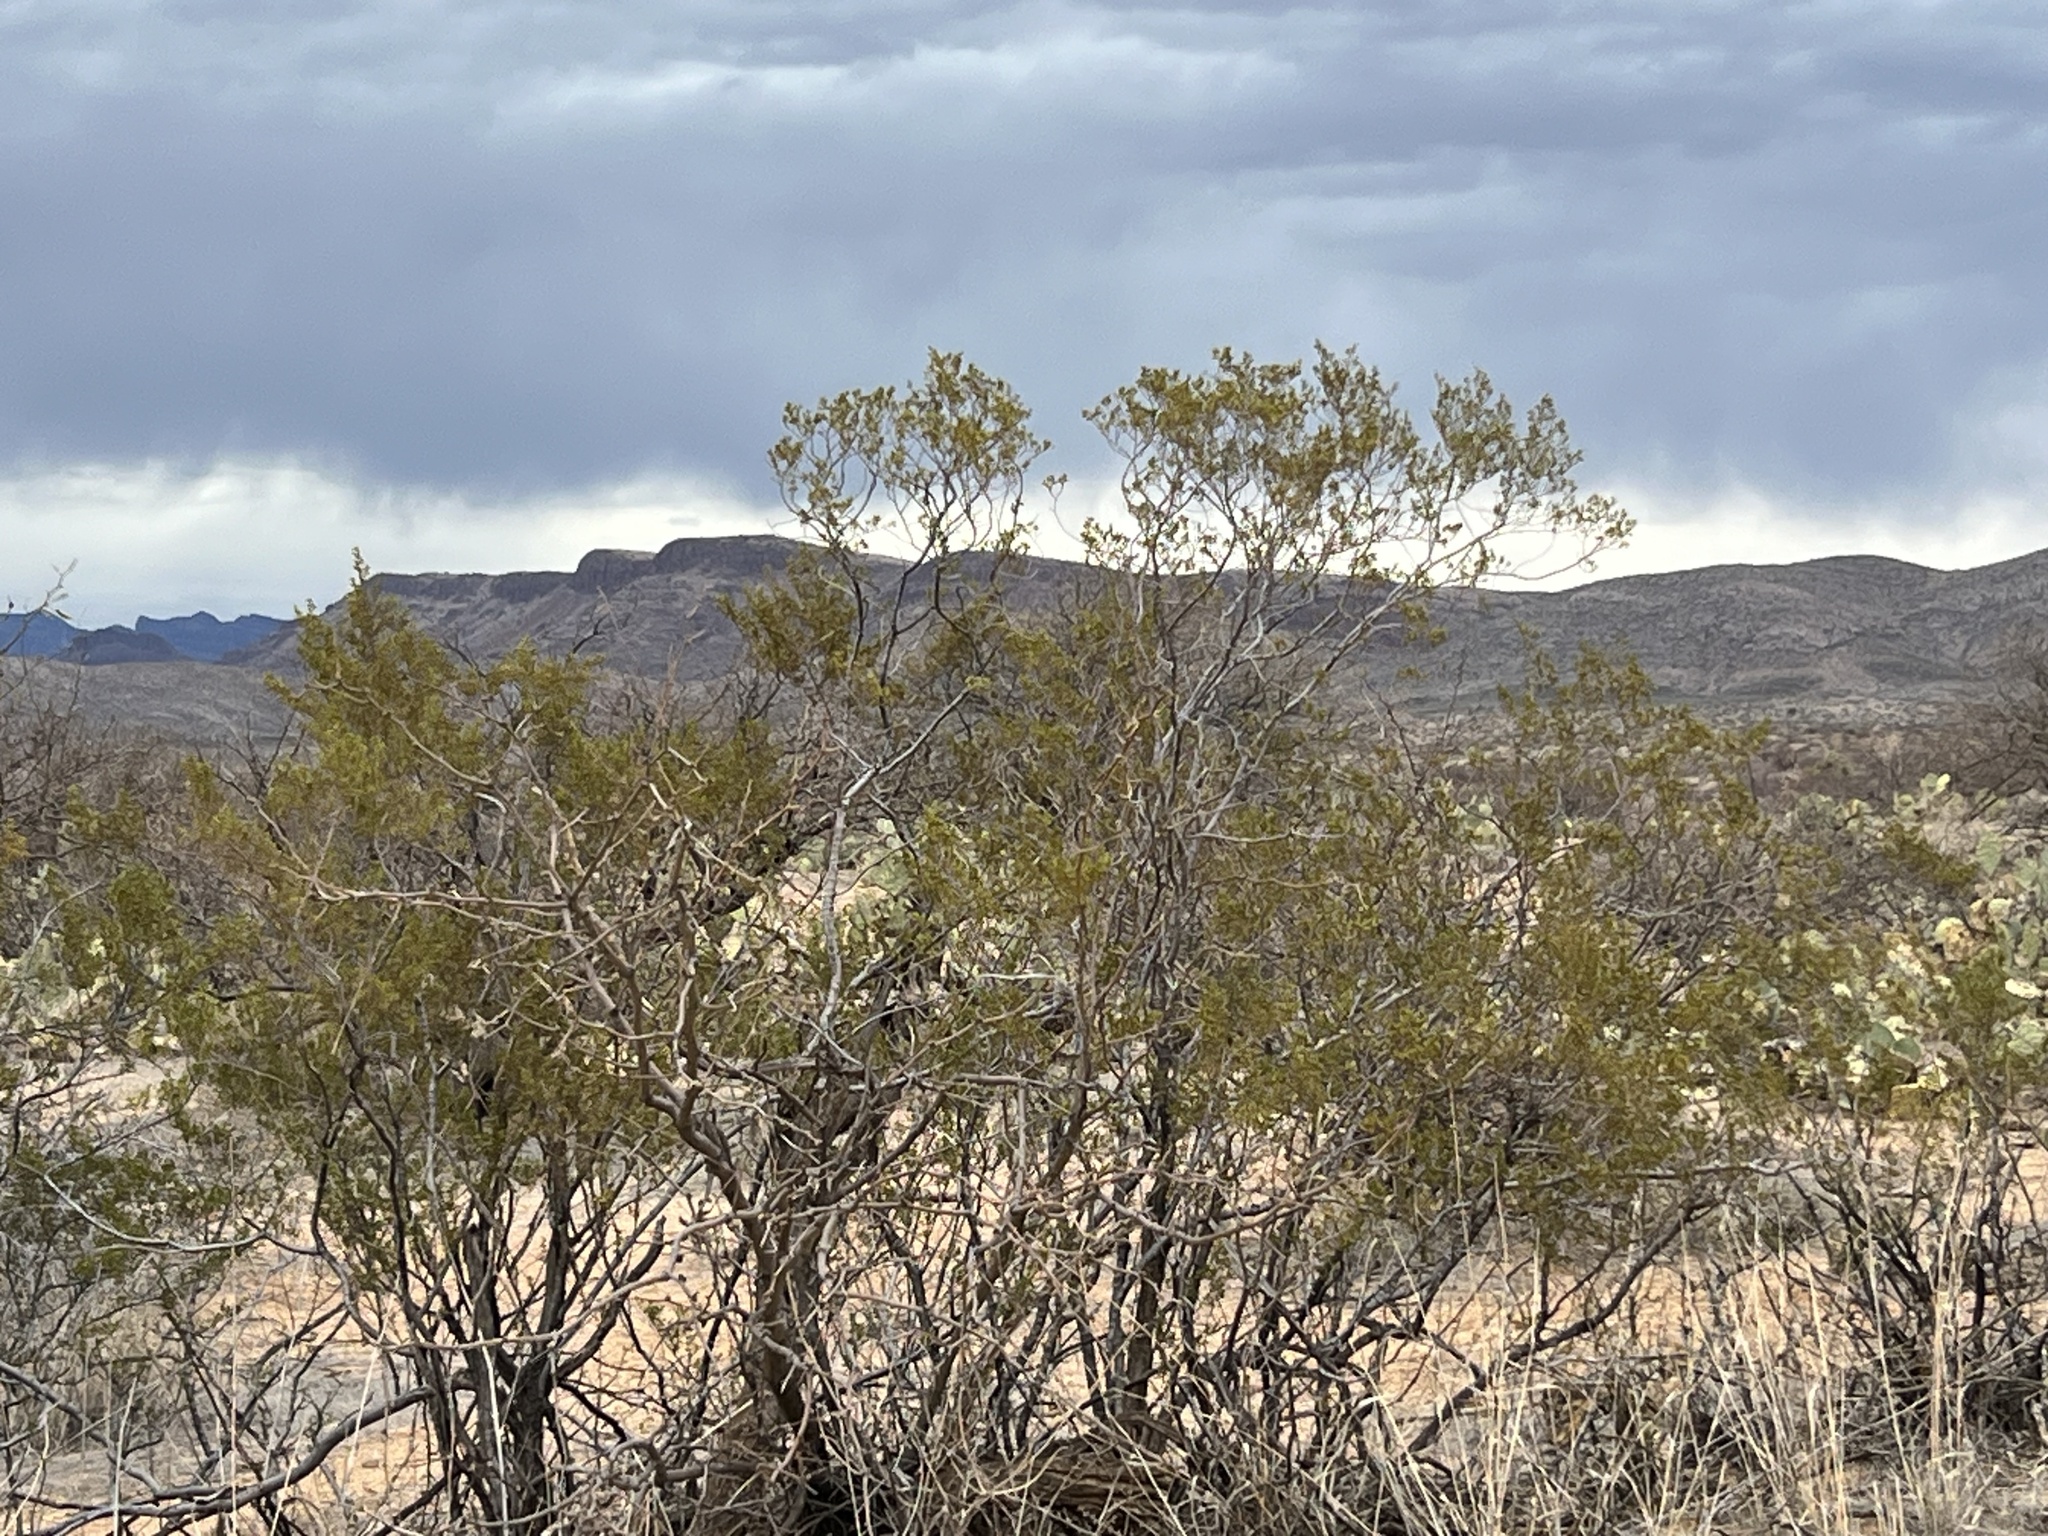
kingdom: Plantae
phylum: Tracheophyta
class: Magnoliopsida
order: Zygophyllales
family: Zygophyllaceae
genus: Larrea
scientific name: Larrea tridentata
